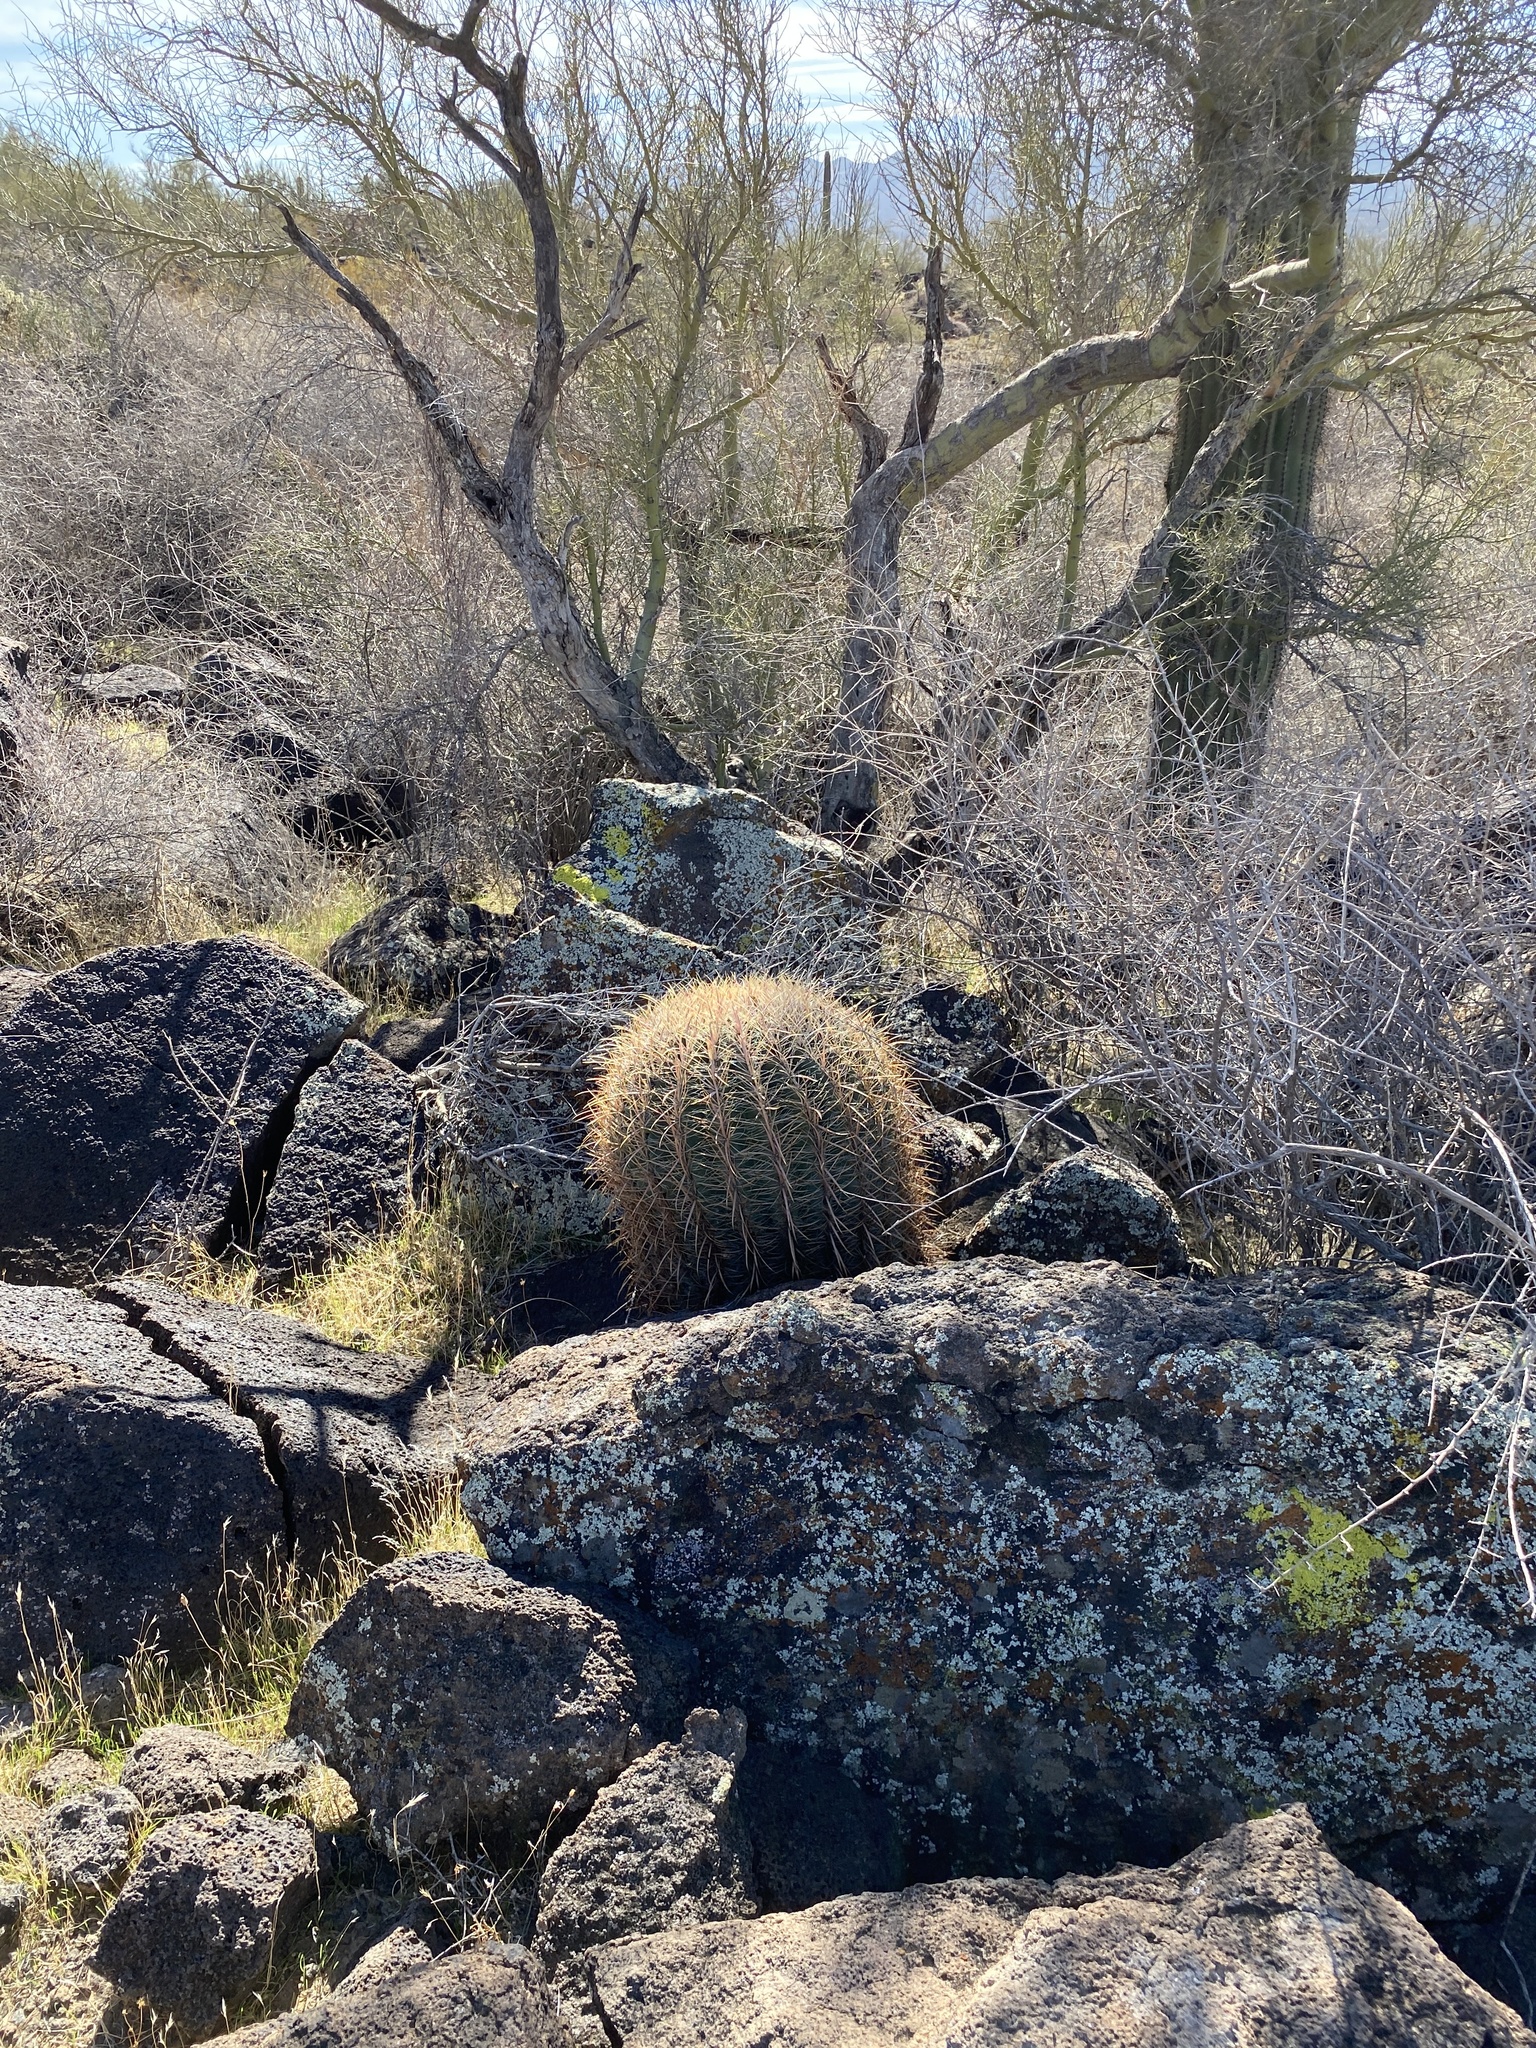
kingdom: Plantae
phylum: Tracheophyta
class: Magnoliopsida
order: Caryophyllales
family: Cactaceae
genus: Ferocactus
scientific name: Ferocactus cylindraceus
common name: California barrel cactus
